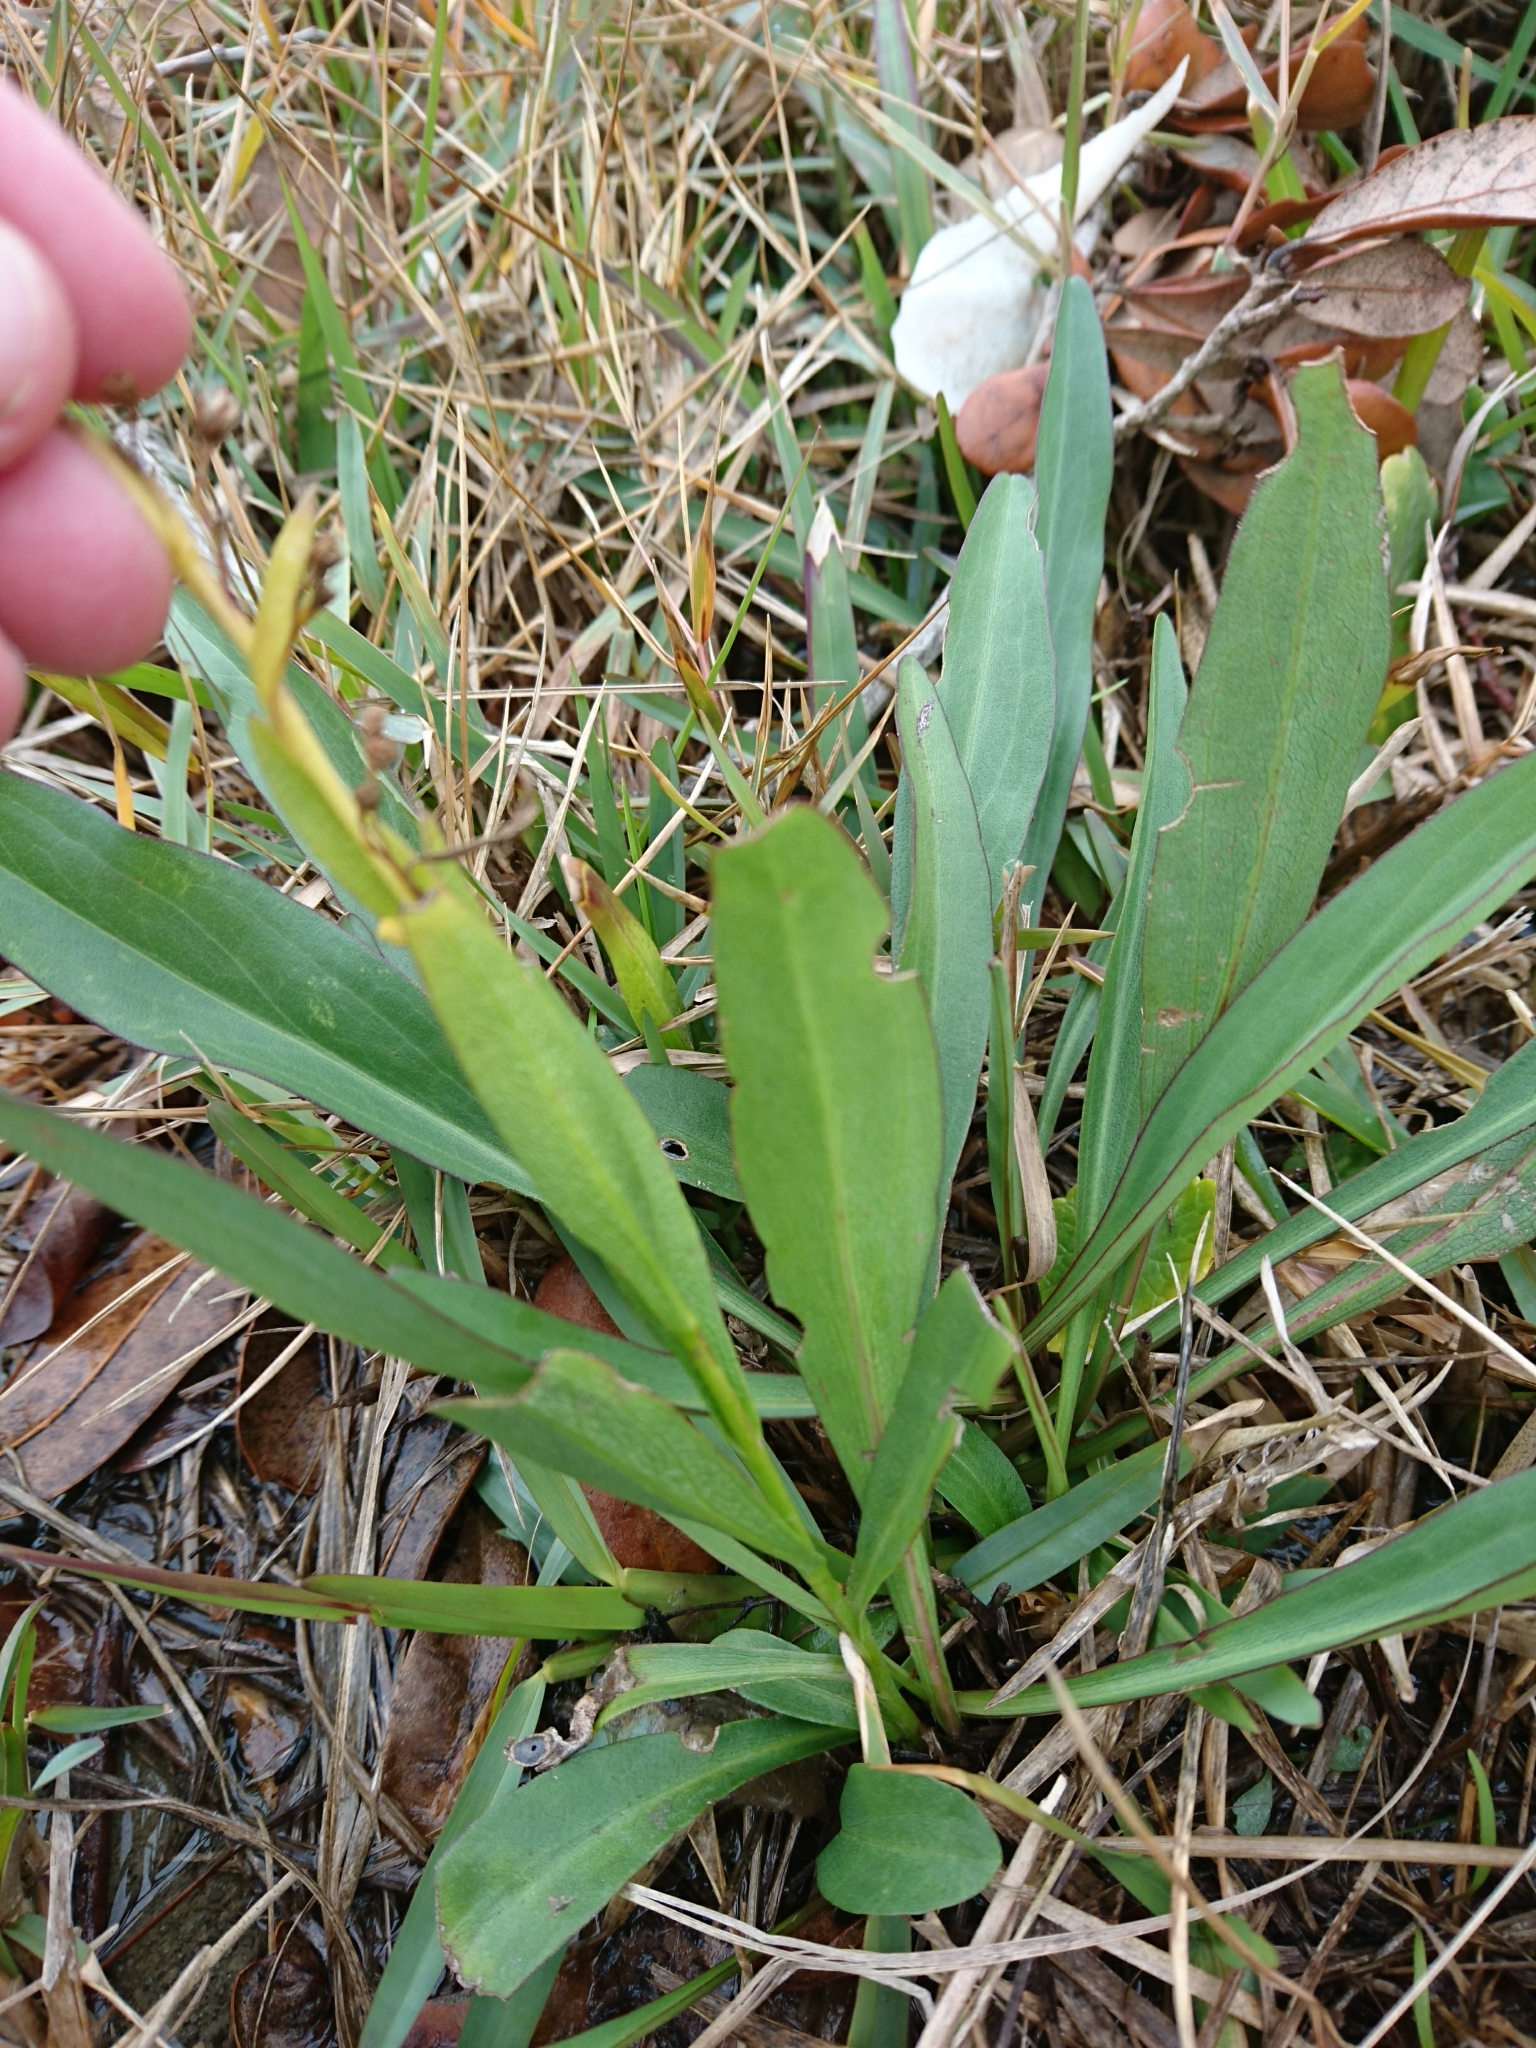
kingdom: Plantae
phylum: Tracheophyta
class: Magnoliopsida
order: Asterales
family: Asteraceae
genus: Solidago
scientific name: Solidago mexicana
